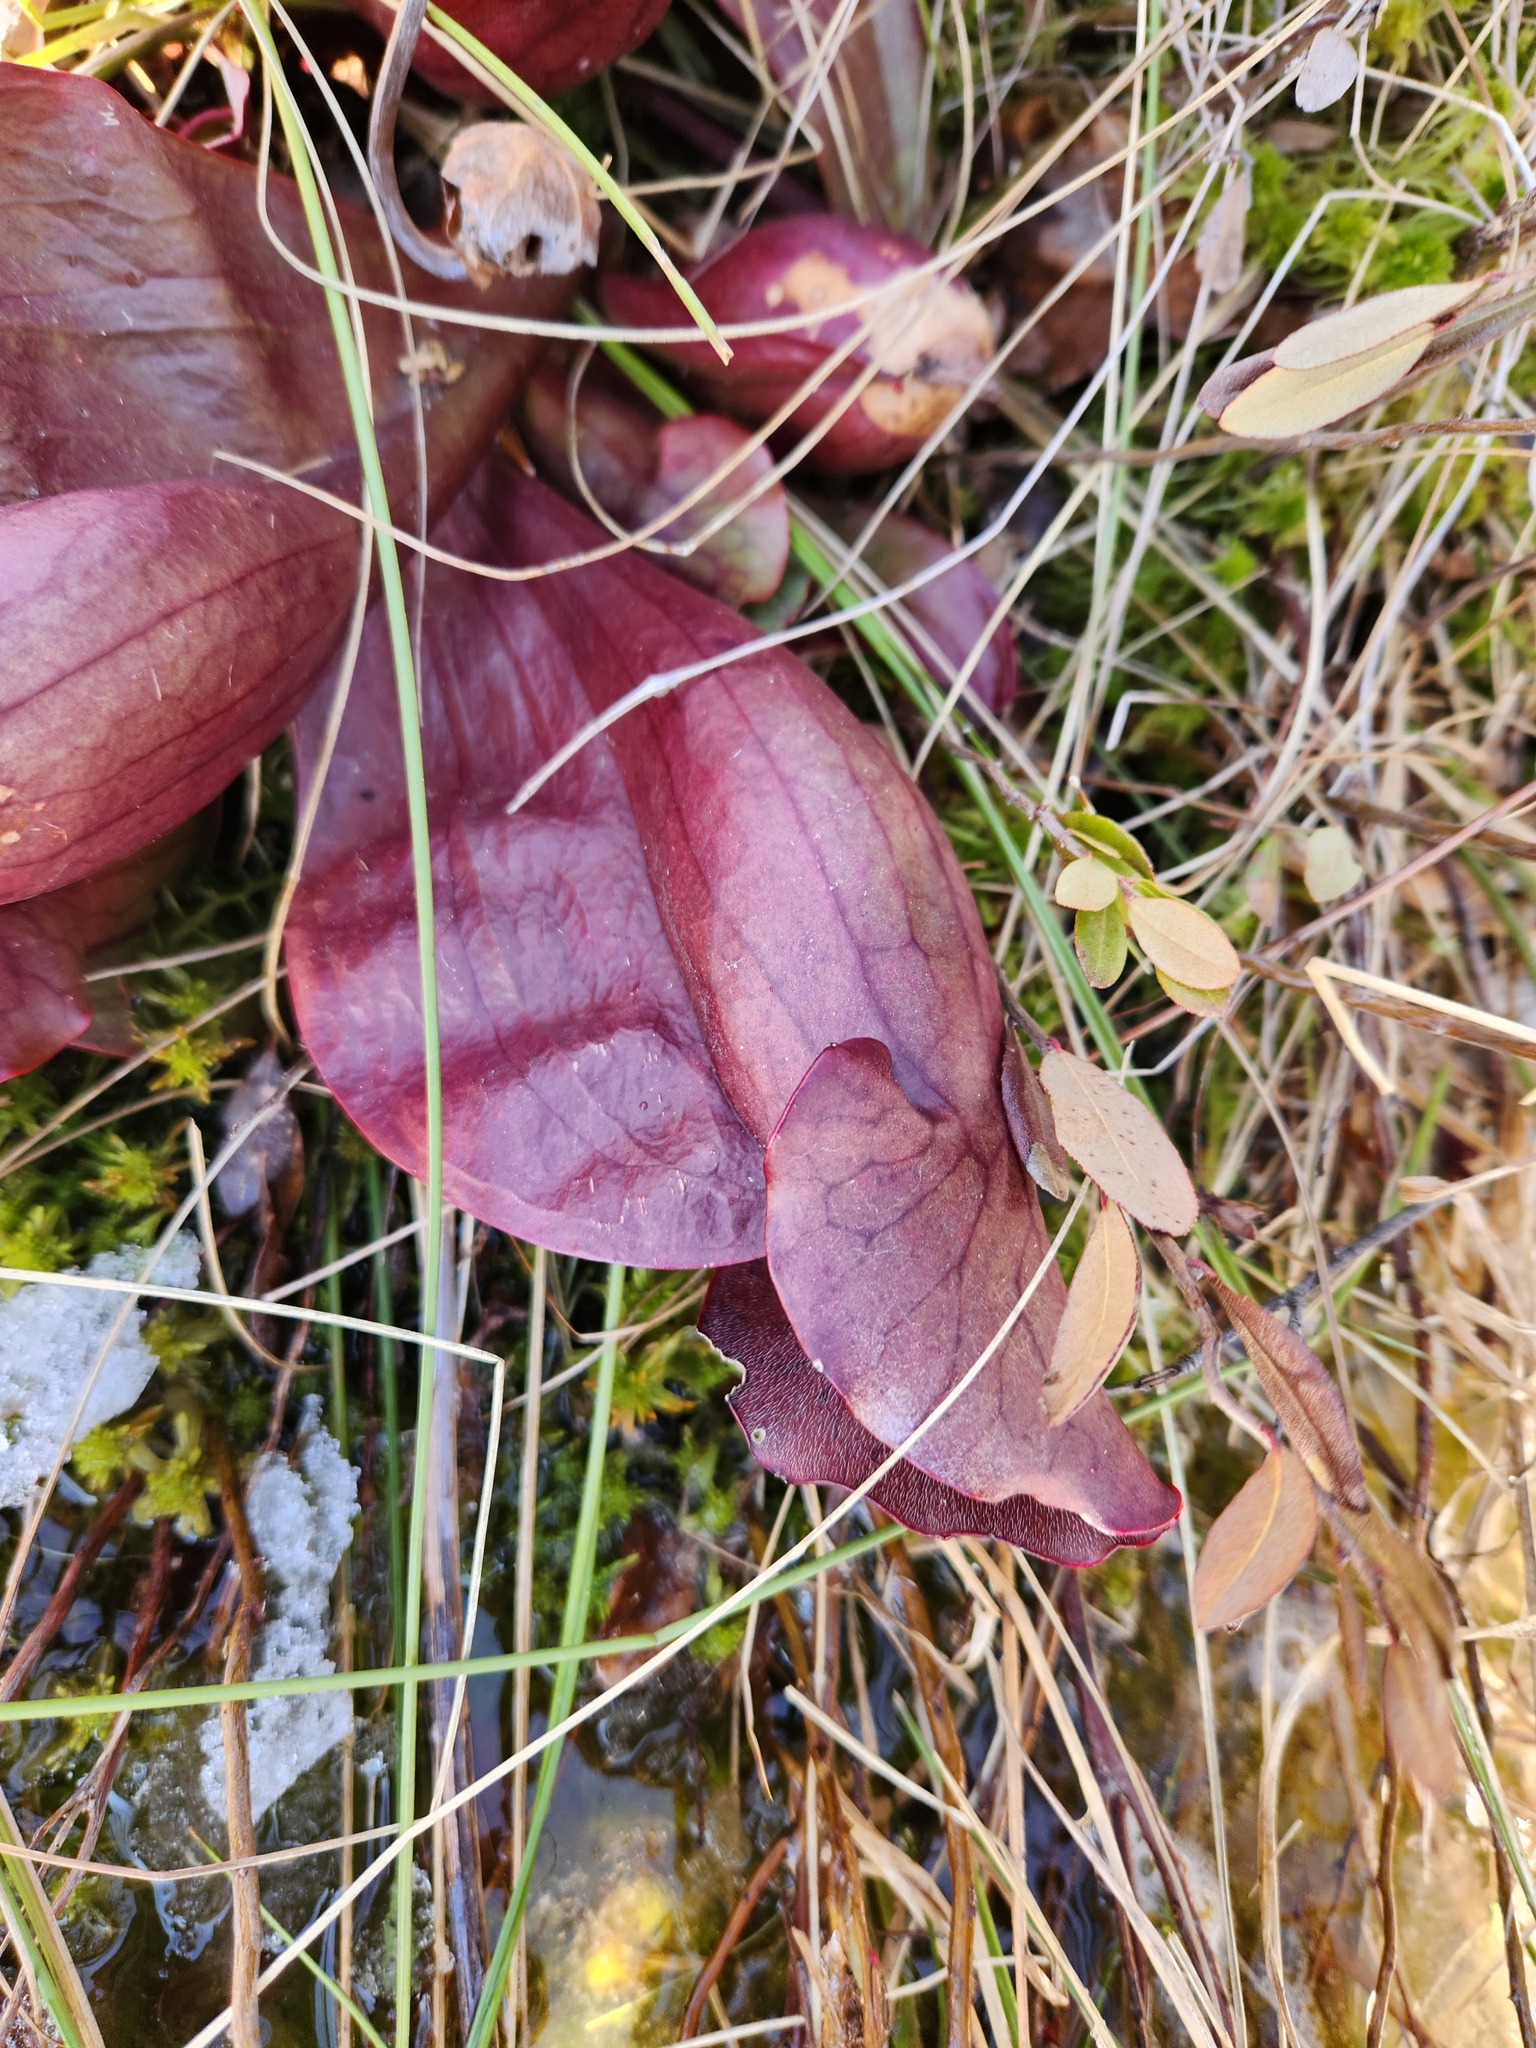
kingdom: Plantae
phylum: Tracheophyta
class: Magnoliopsida
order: Ericales
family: Sarraceniaceae
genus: Sarracenia
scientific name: Sarracenia purpurea
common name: Pitcherplant
